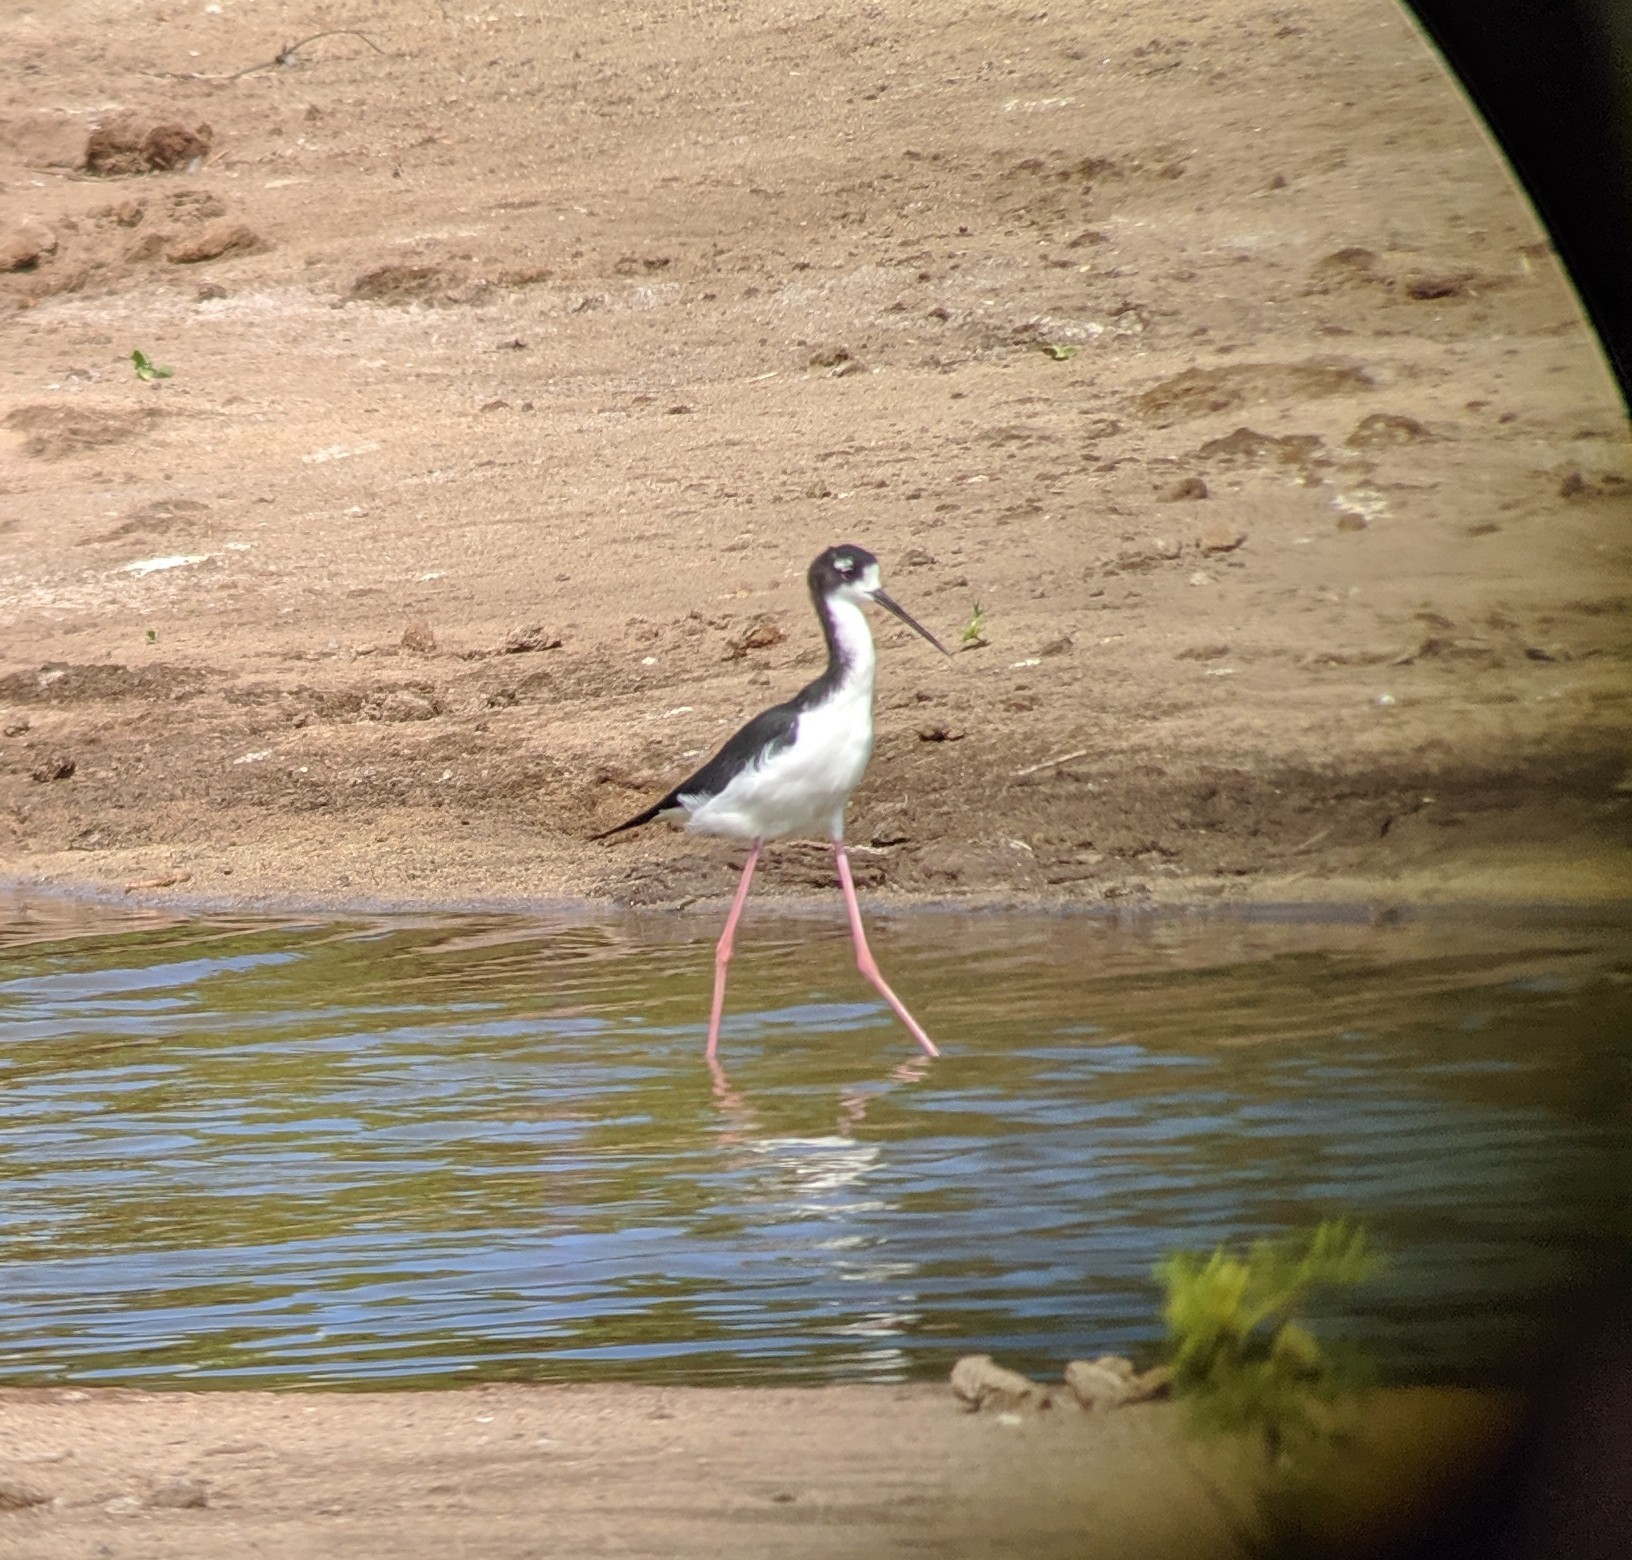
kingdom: Animalia
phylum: Chordata
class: Aves
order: Charadriiformes
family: Recurvirostridae
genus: Himantopus
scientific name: Himantopus mexicanus
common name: Black-necked stilt
